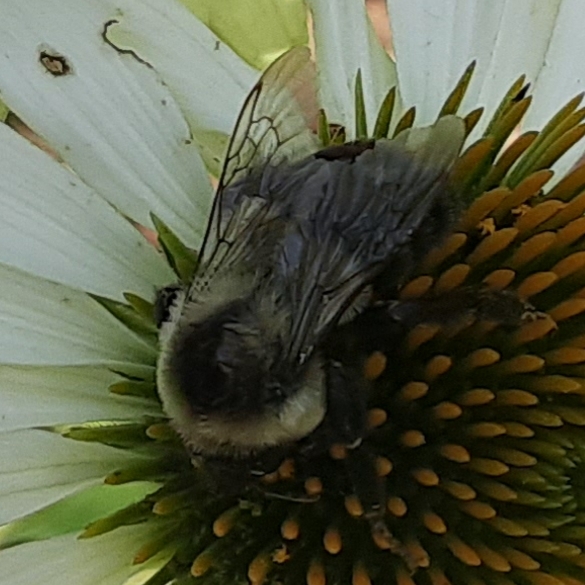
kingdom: Animalia
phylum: Arthropoda
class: Insecta
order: Hymenoptera
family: Apidae
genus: Bombus
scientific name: Bombus impatiens
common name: Common eastern bumble bee
